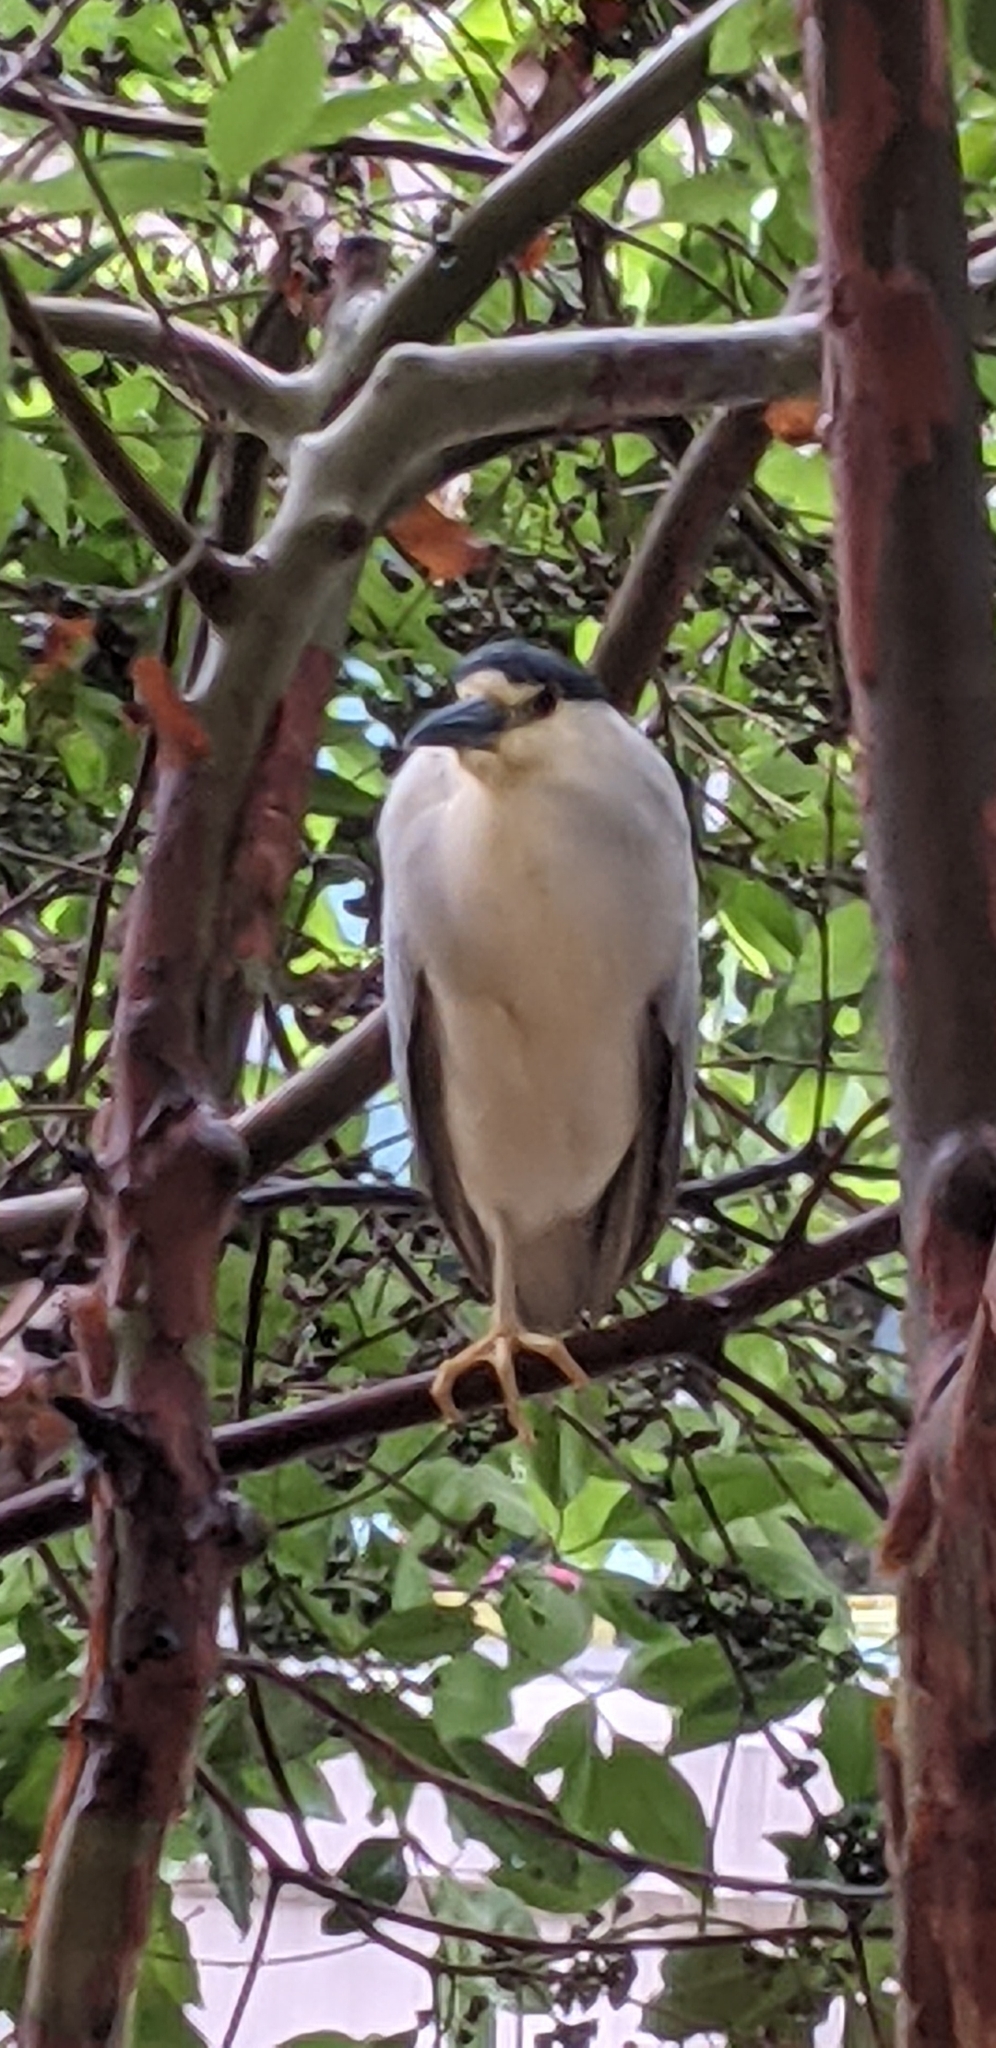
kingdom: Animalia
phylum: Chordata
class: Aves
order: Pelecaniformes
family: Ardeidae
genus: Nycticorax
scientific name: Nycticorax nycticorax
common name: Black-crowned night heron
